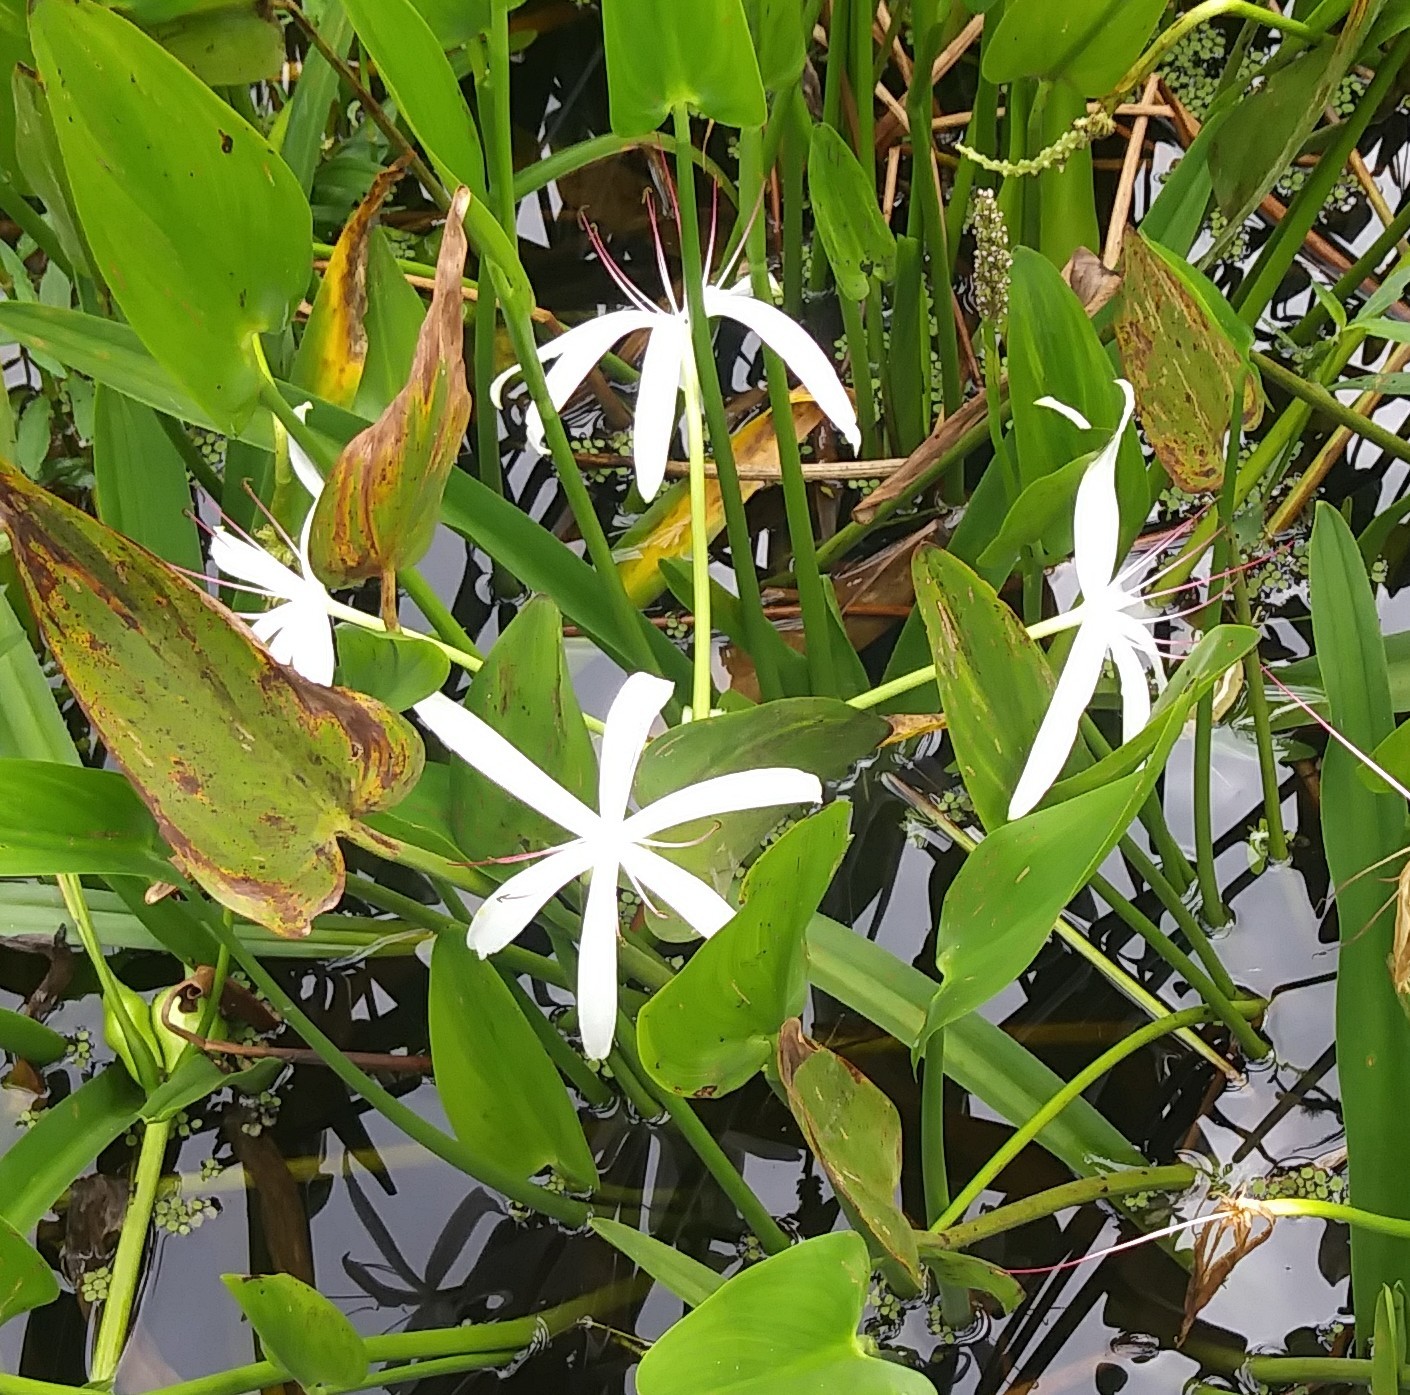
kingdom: Plantae
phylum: Tracheophyta
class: Liliopsida
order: Asparagales
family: Amaryllidaceae
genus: Crinum
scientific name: Crinum americanum
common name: Florida swamp-lily
